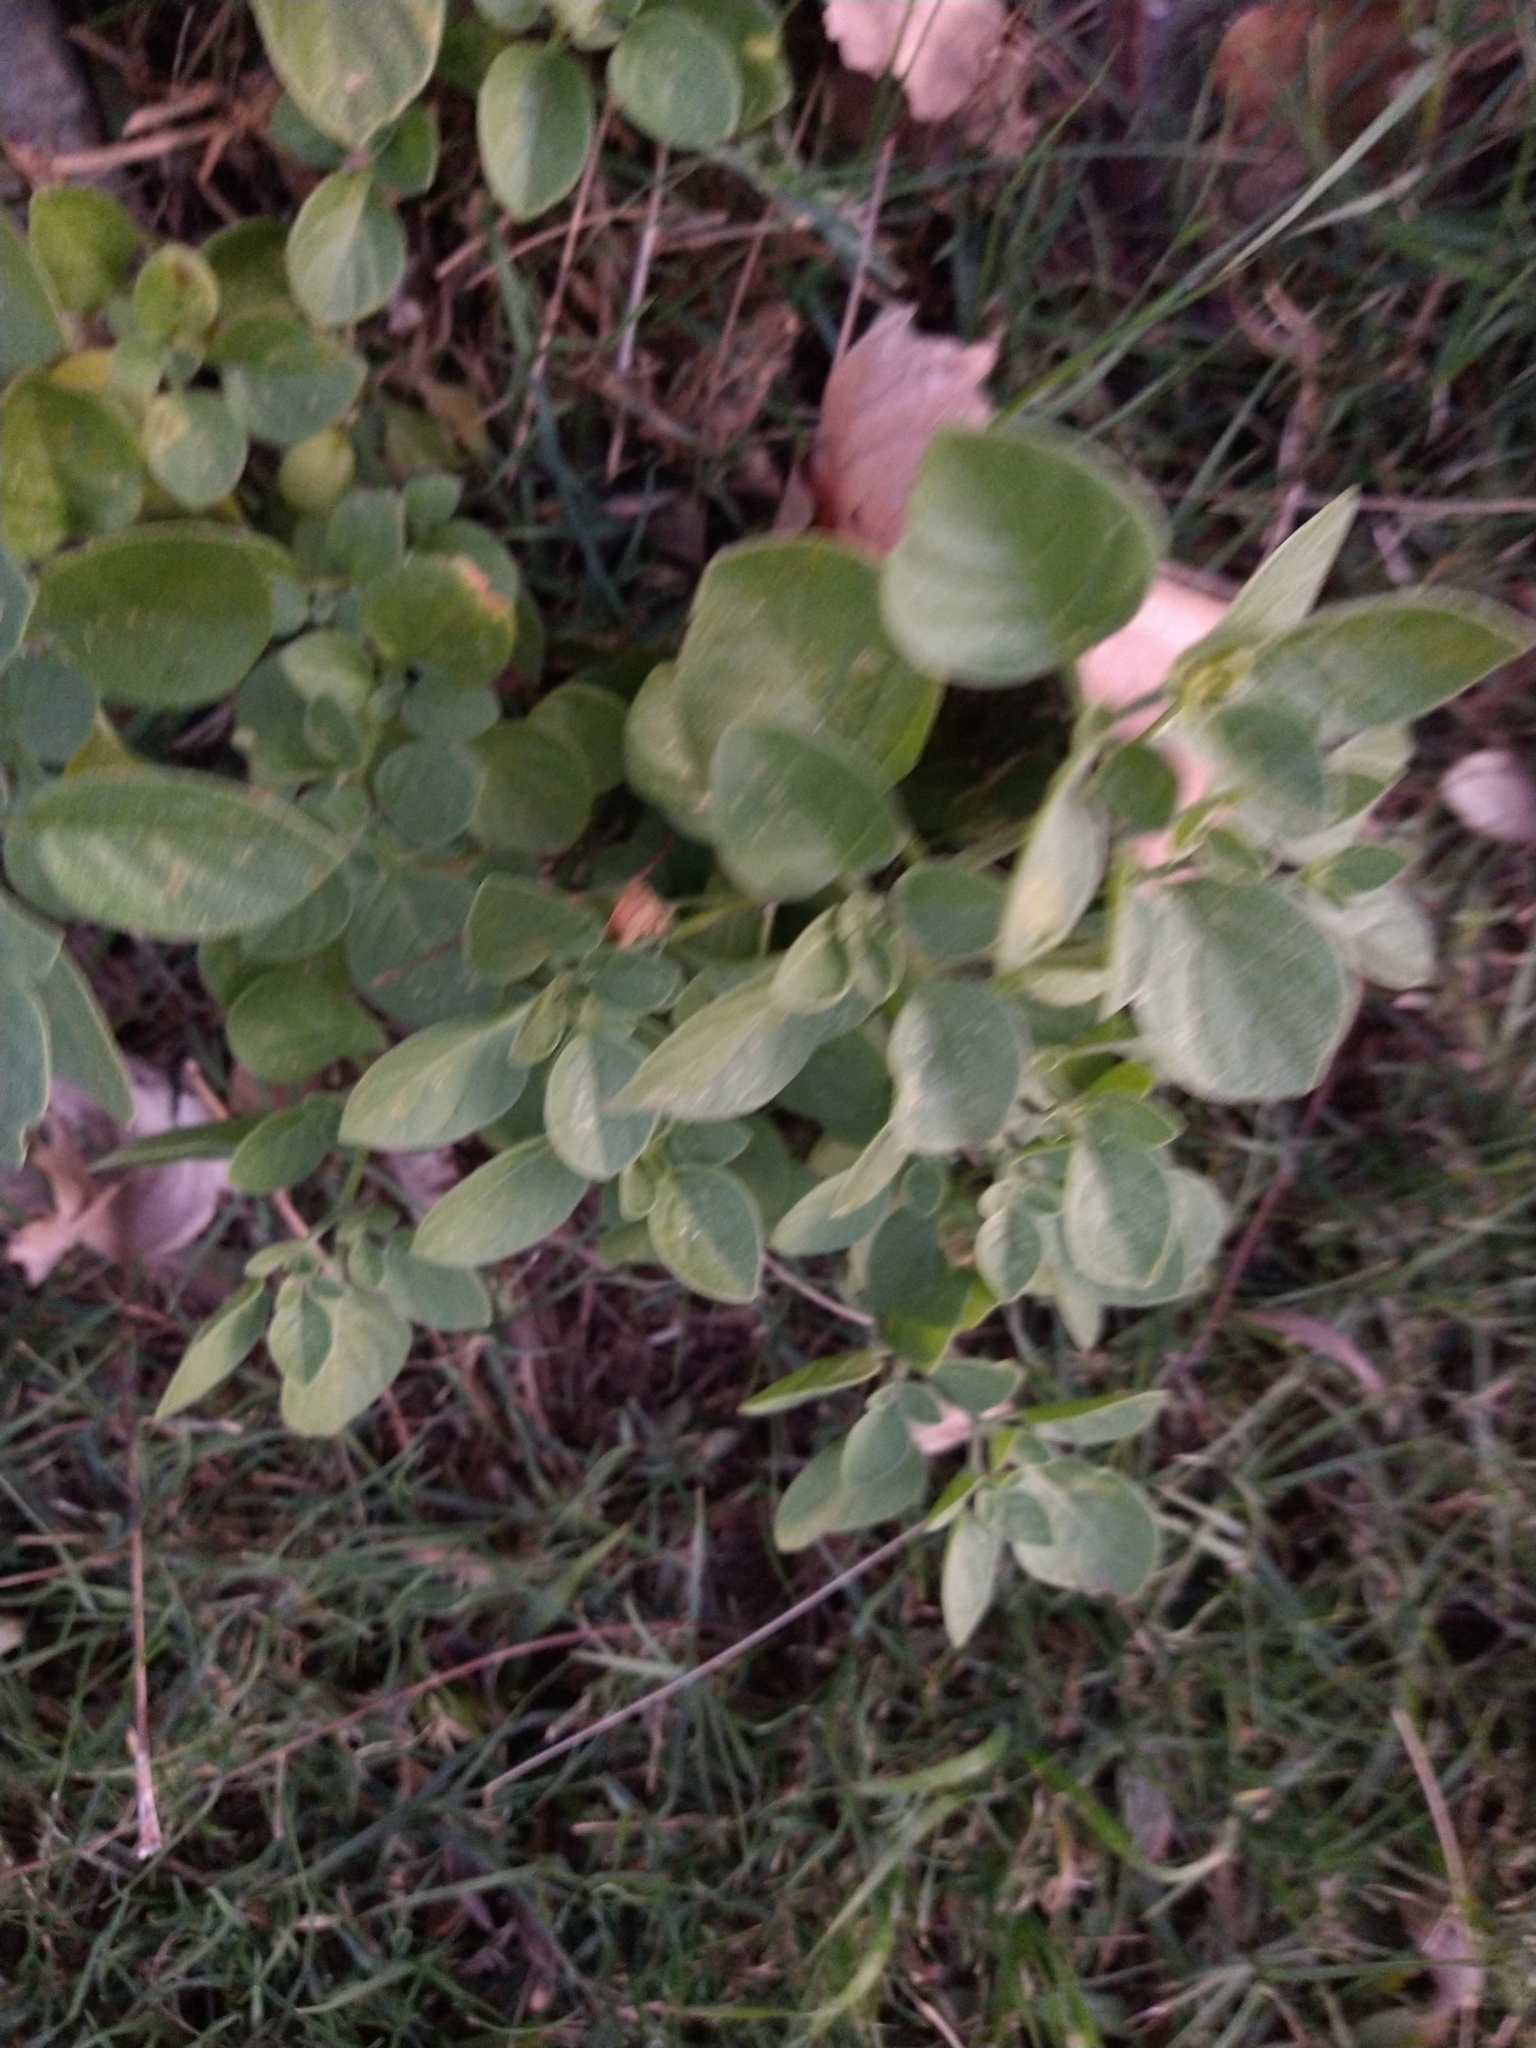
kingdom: Plantae
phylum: Tracheophyta
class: Magnoliopsida
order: Solanales
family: Solanaceae
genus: Salpichroa
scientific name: Salpichroa origanifolia
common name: Lily-of-the-valley-vine
